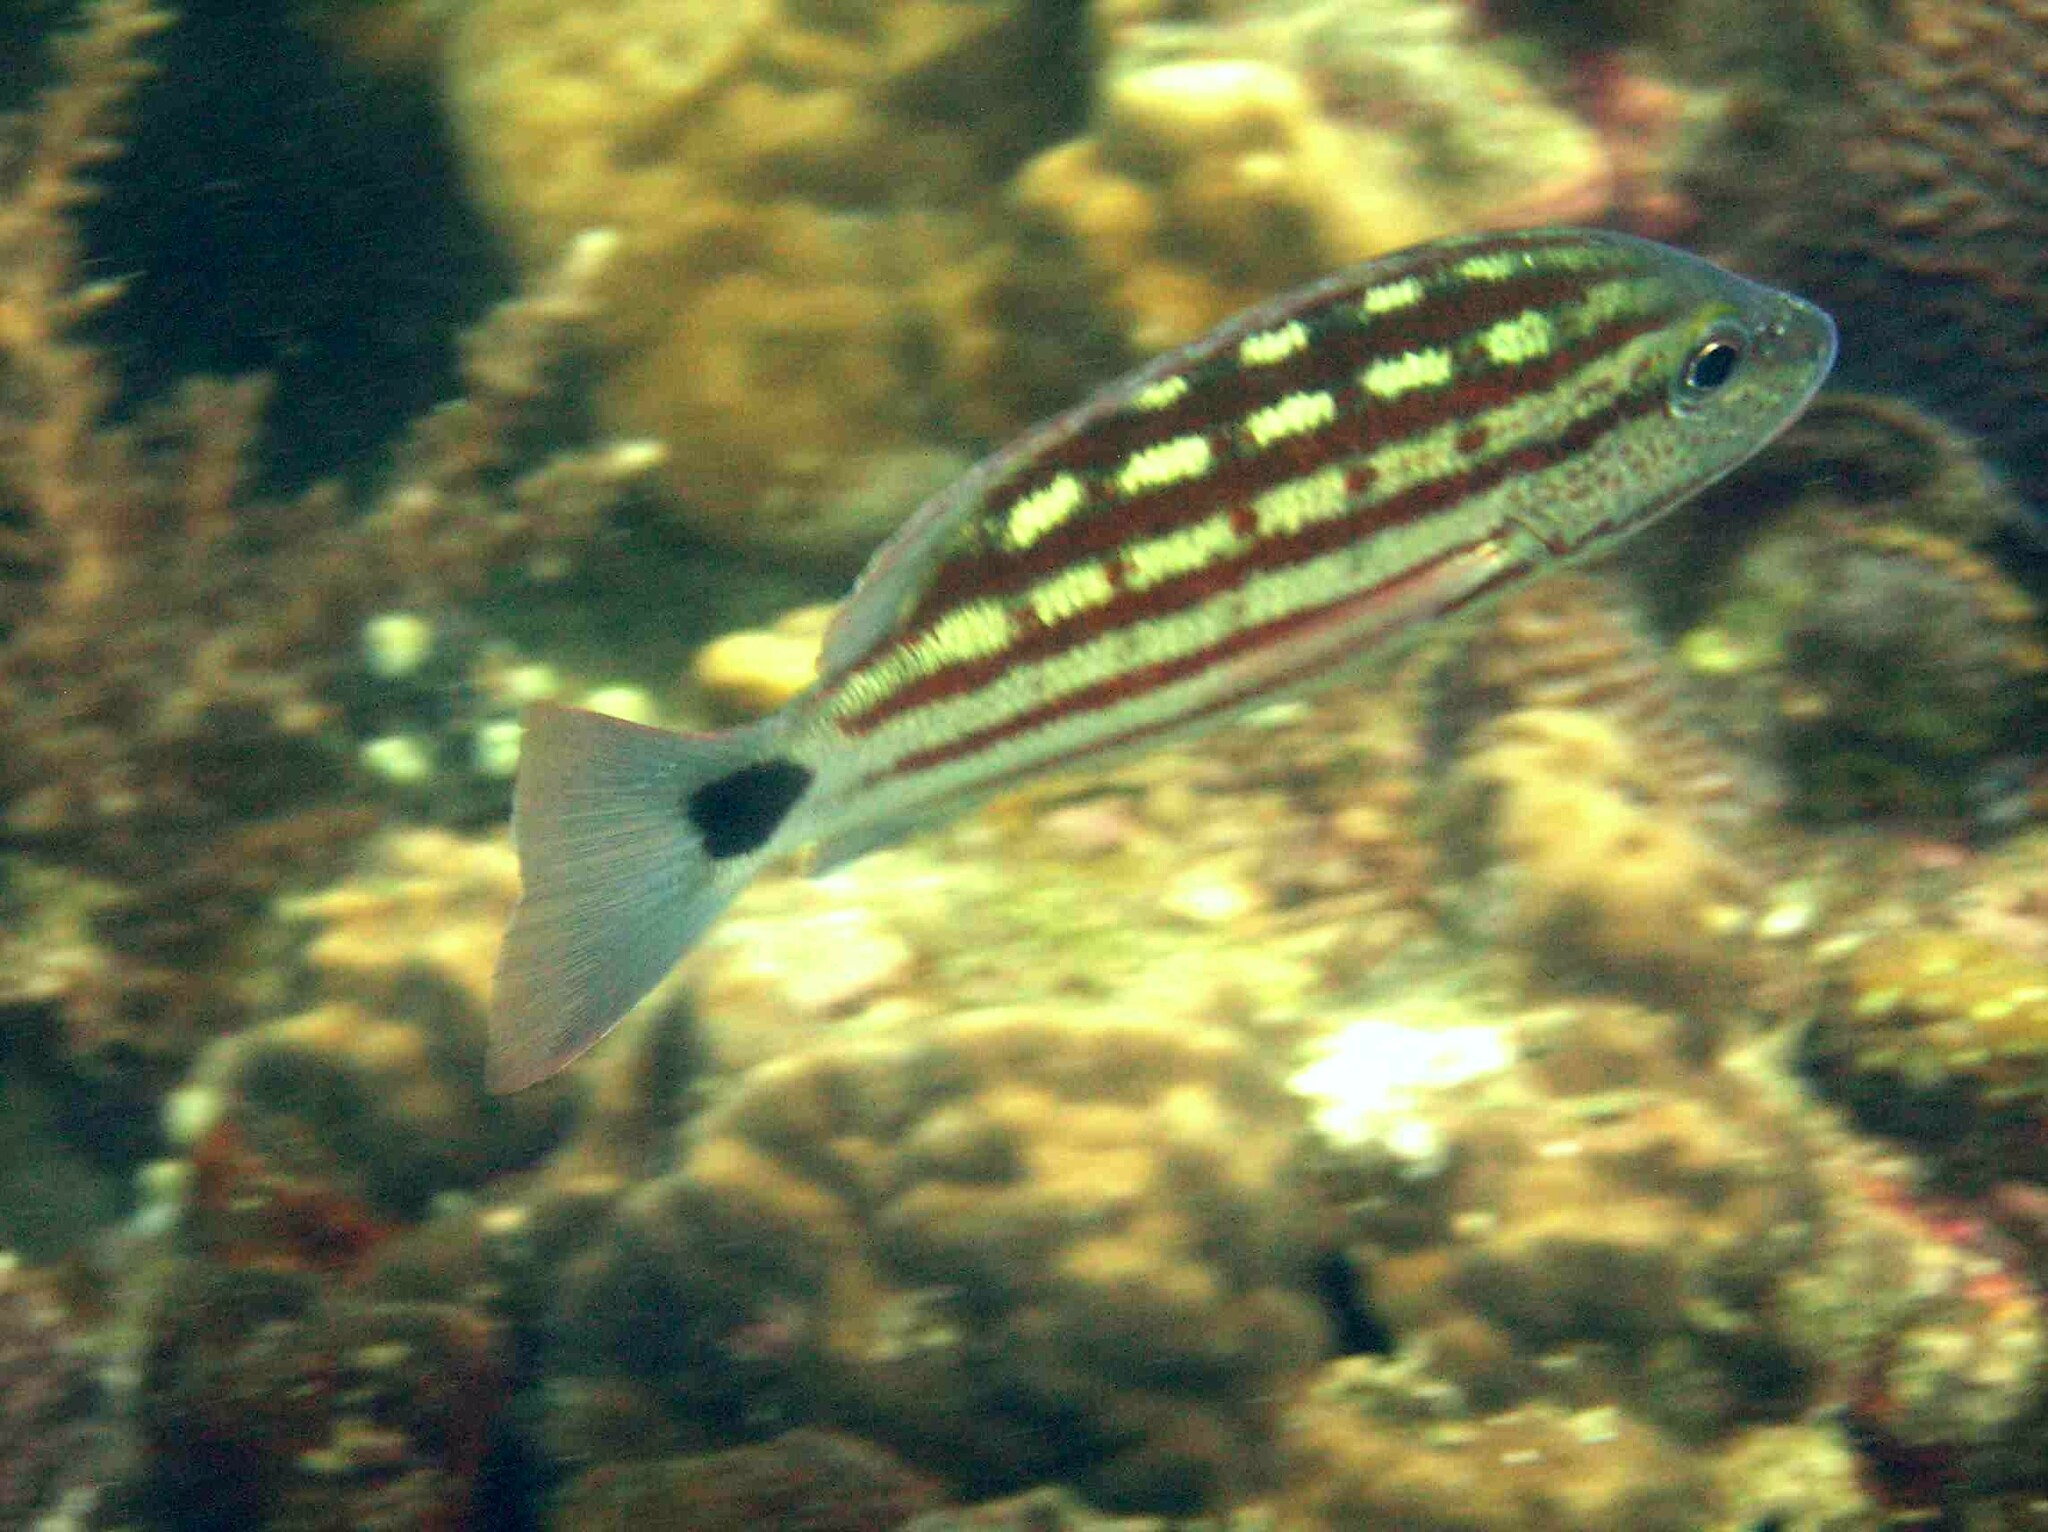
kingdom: Animalia
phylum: Chordata
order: Perciformes
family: Lutjanidae
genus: Lutjanus
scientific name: Lutjanus decussatus
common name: Checkered snapper
